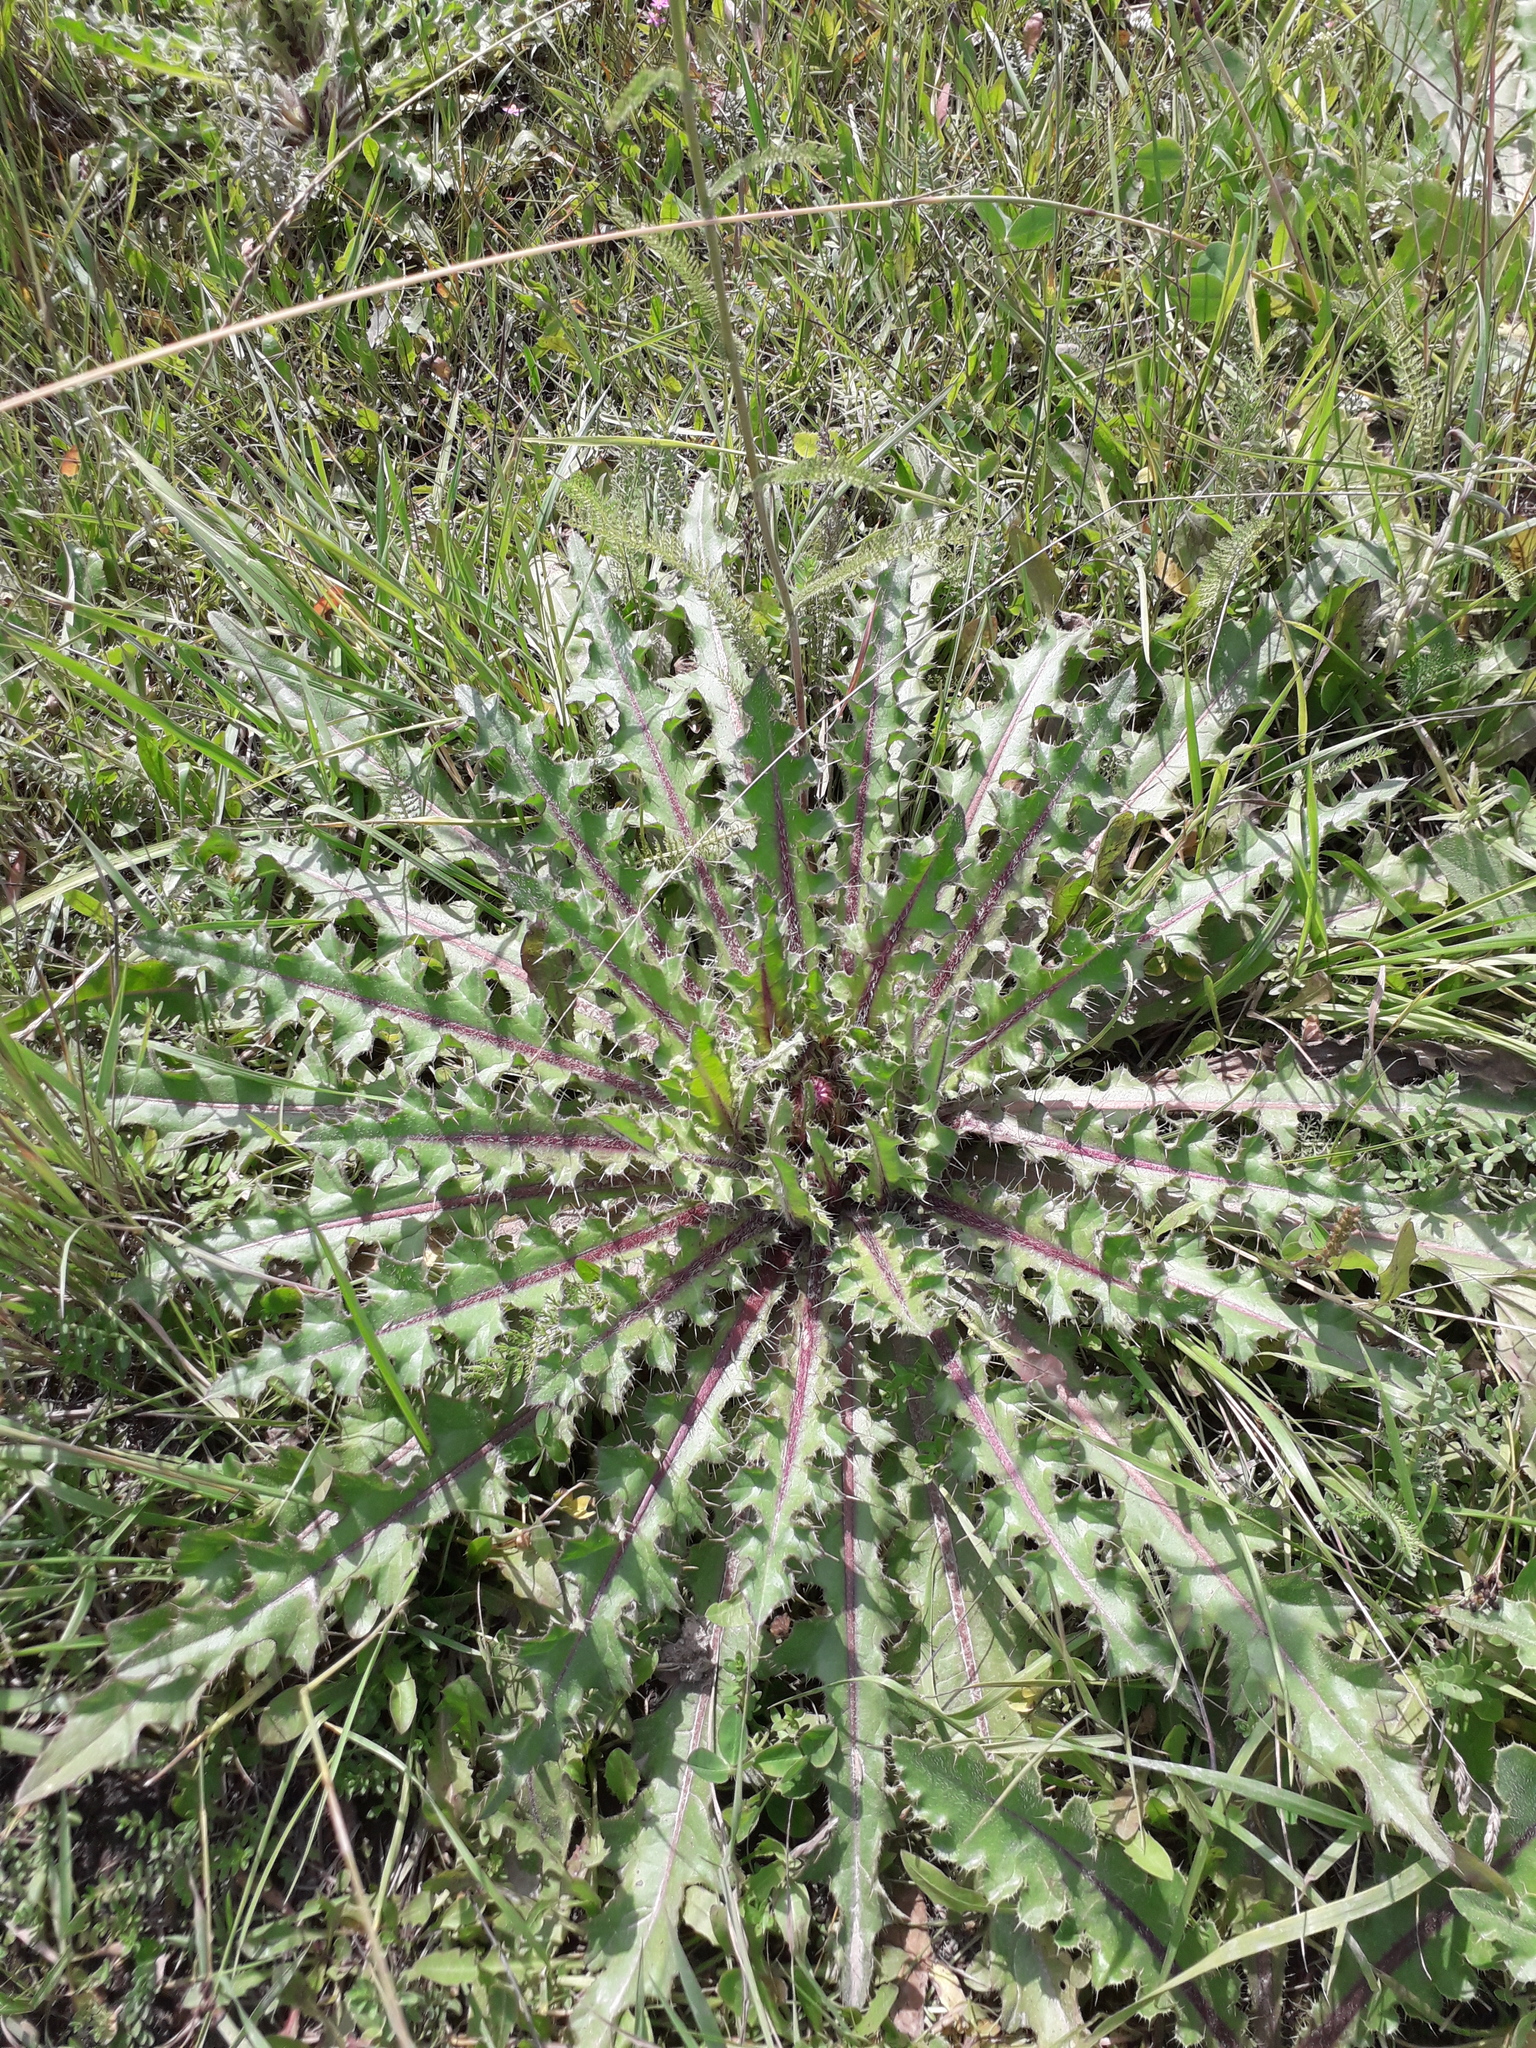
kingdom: Plantae
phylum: Tracheophyta
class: Magnoliopsida
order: Asterales
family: Asteraceae
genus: Cirsium
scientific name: Cirsium esculentum
